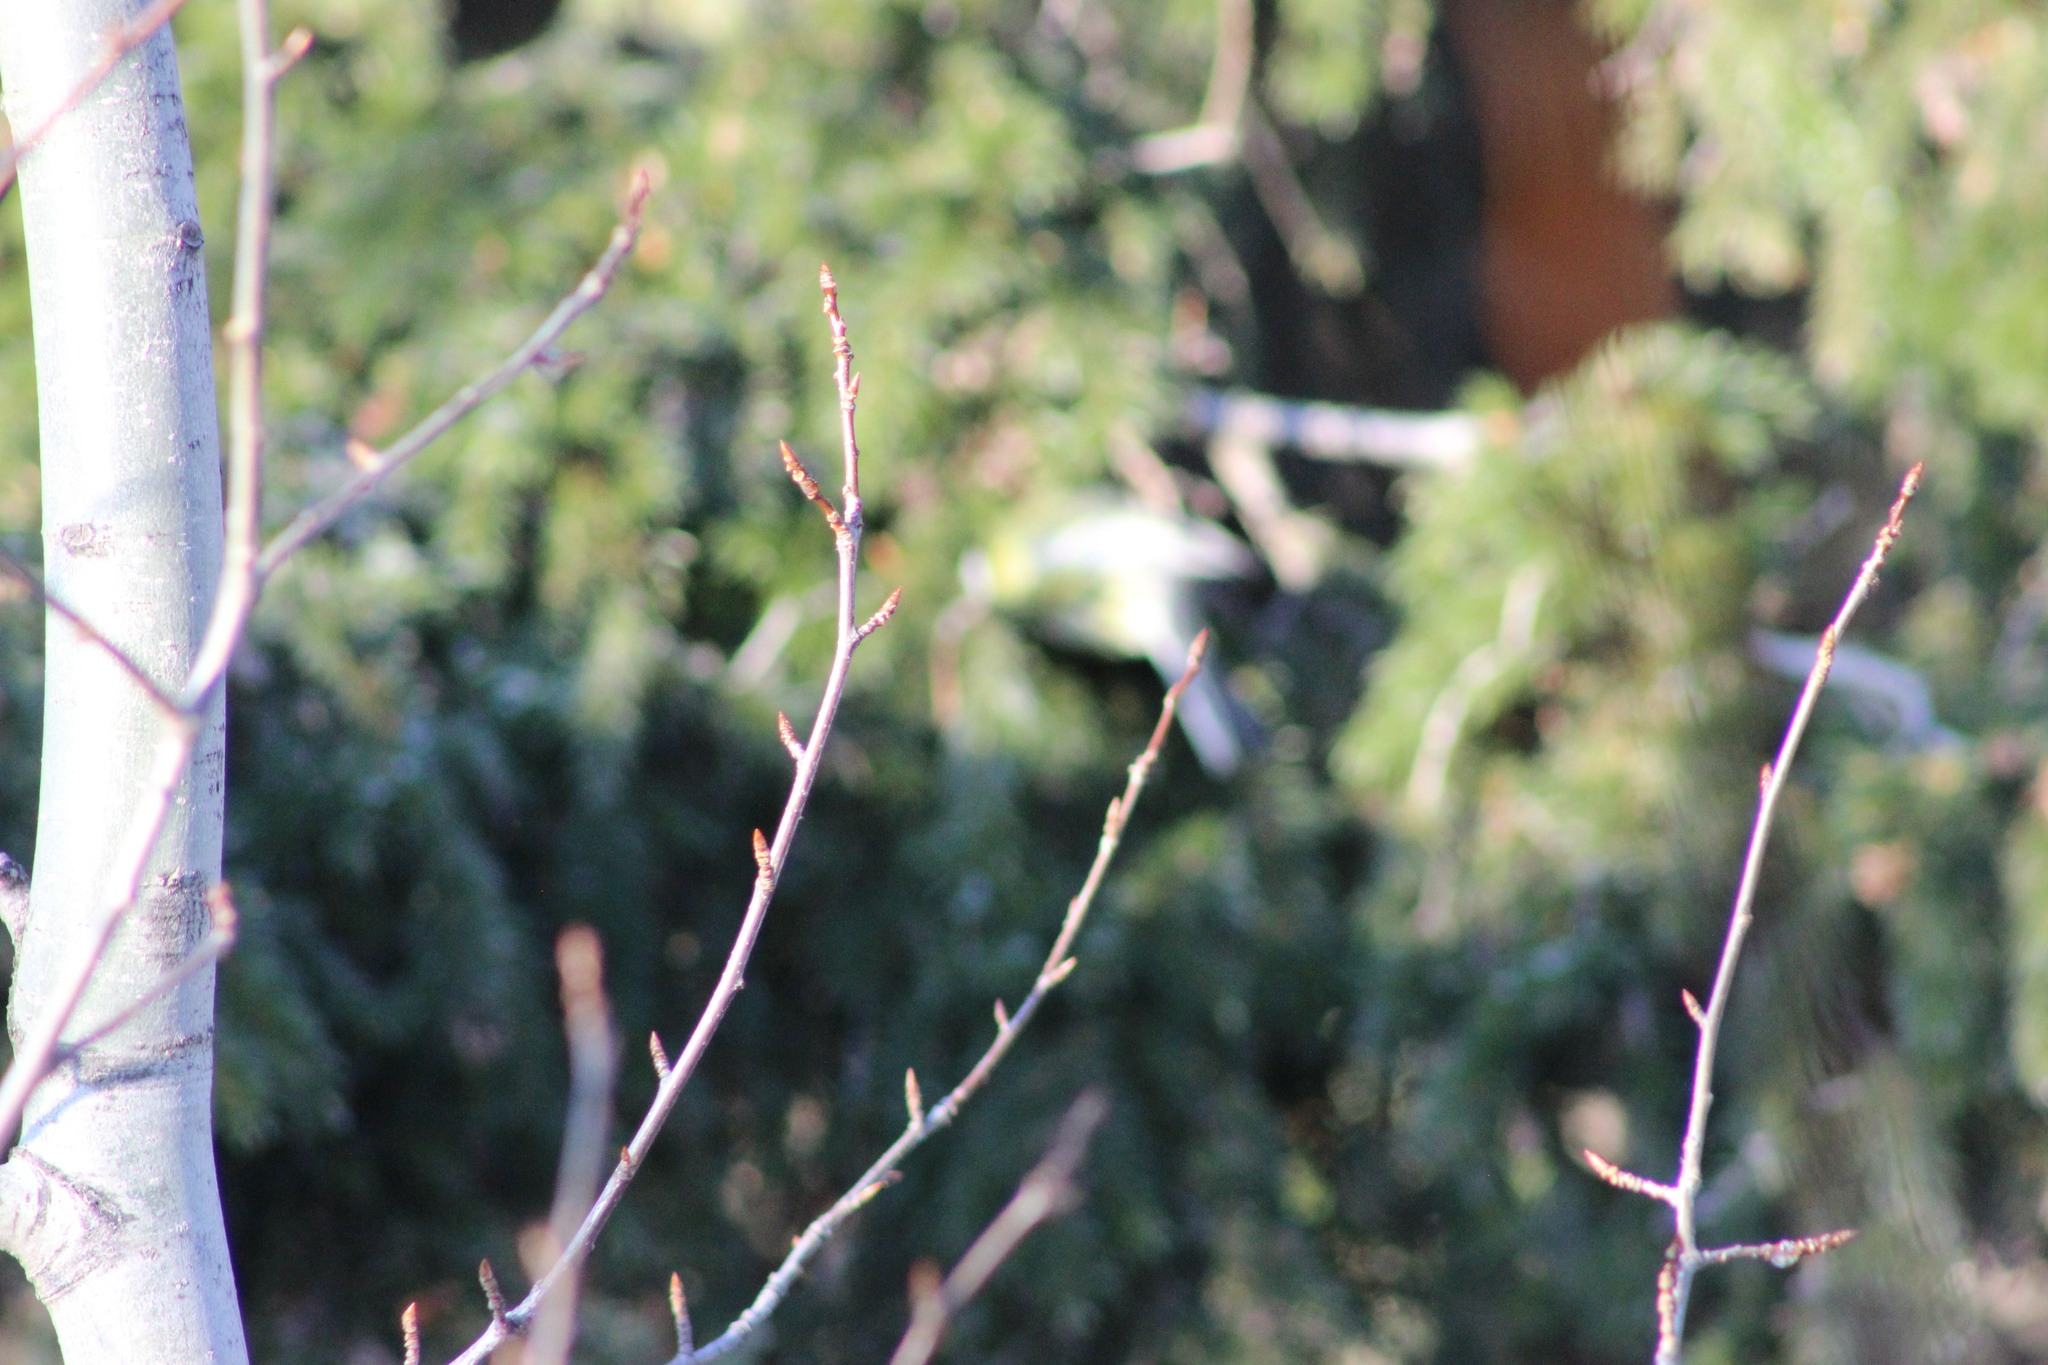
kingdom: Plantae
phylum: Tracheophyta
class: Magnoliopsida
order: Malpighiales
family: Salicaceae
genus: Populus
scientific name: Populus tremula
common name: European aspen
